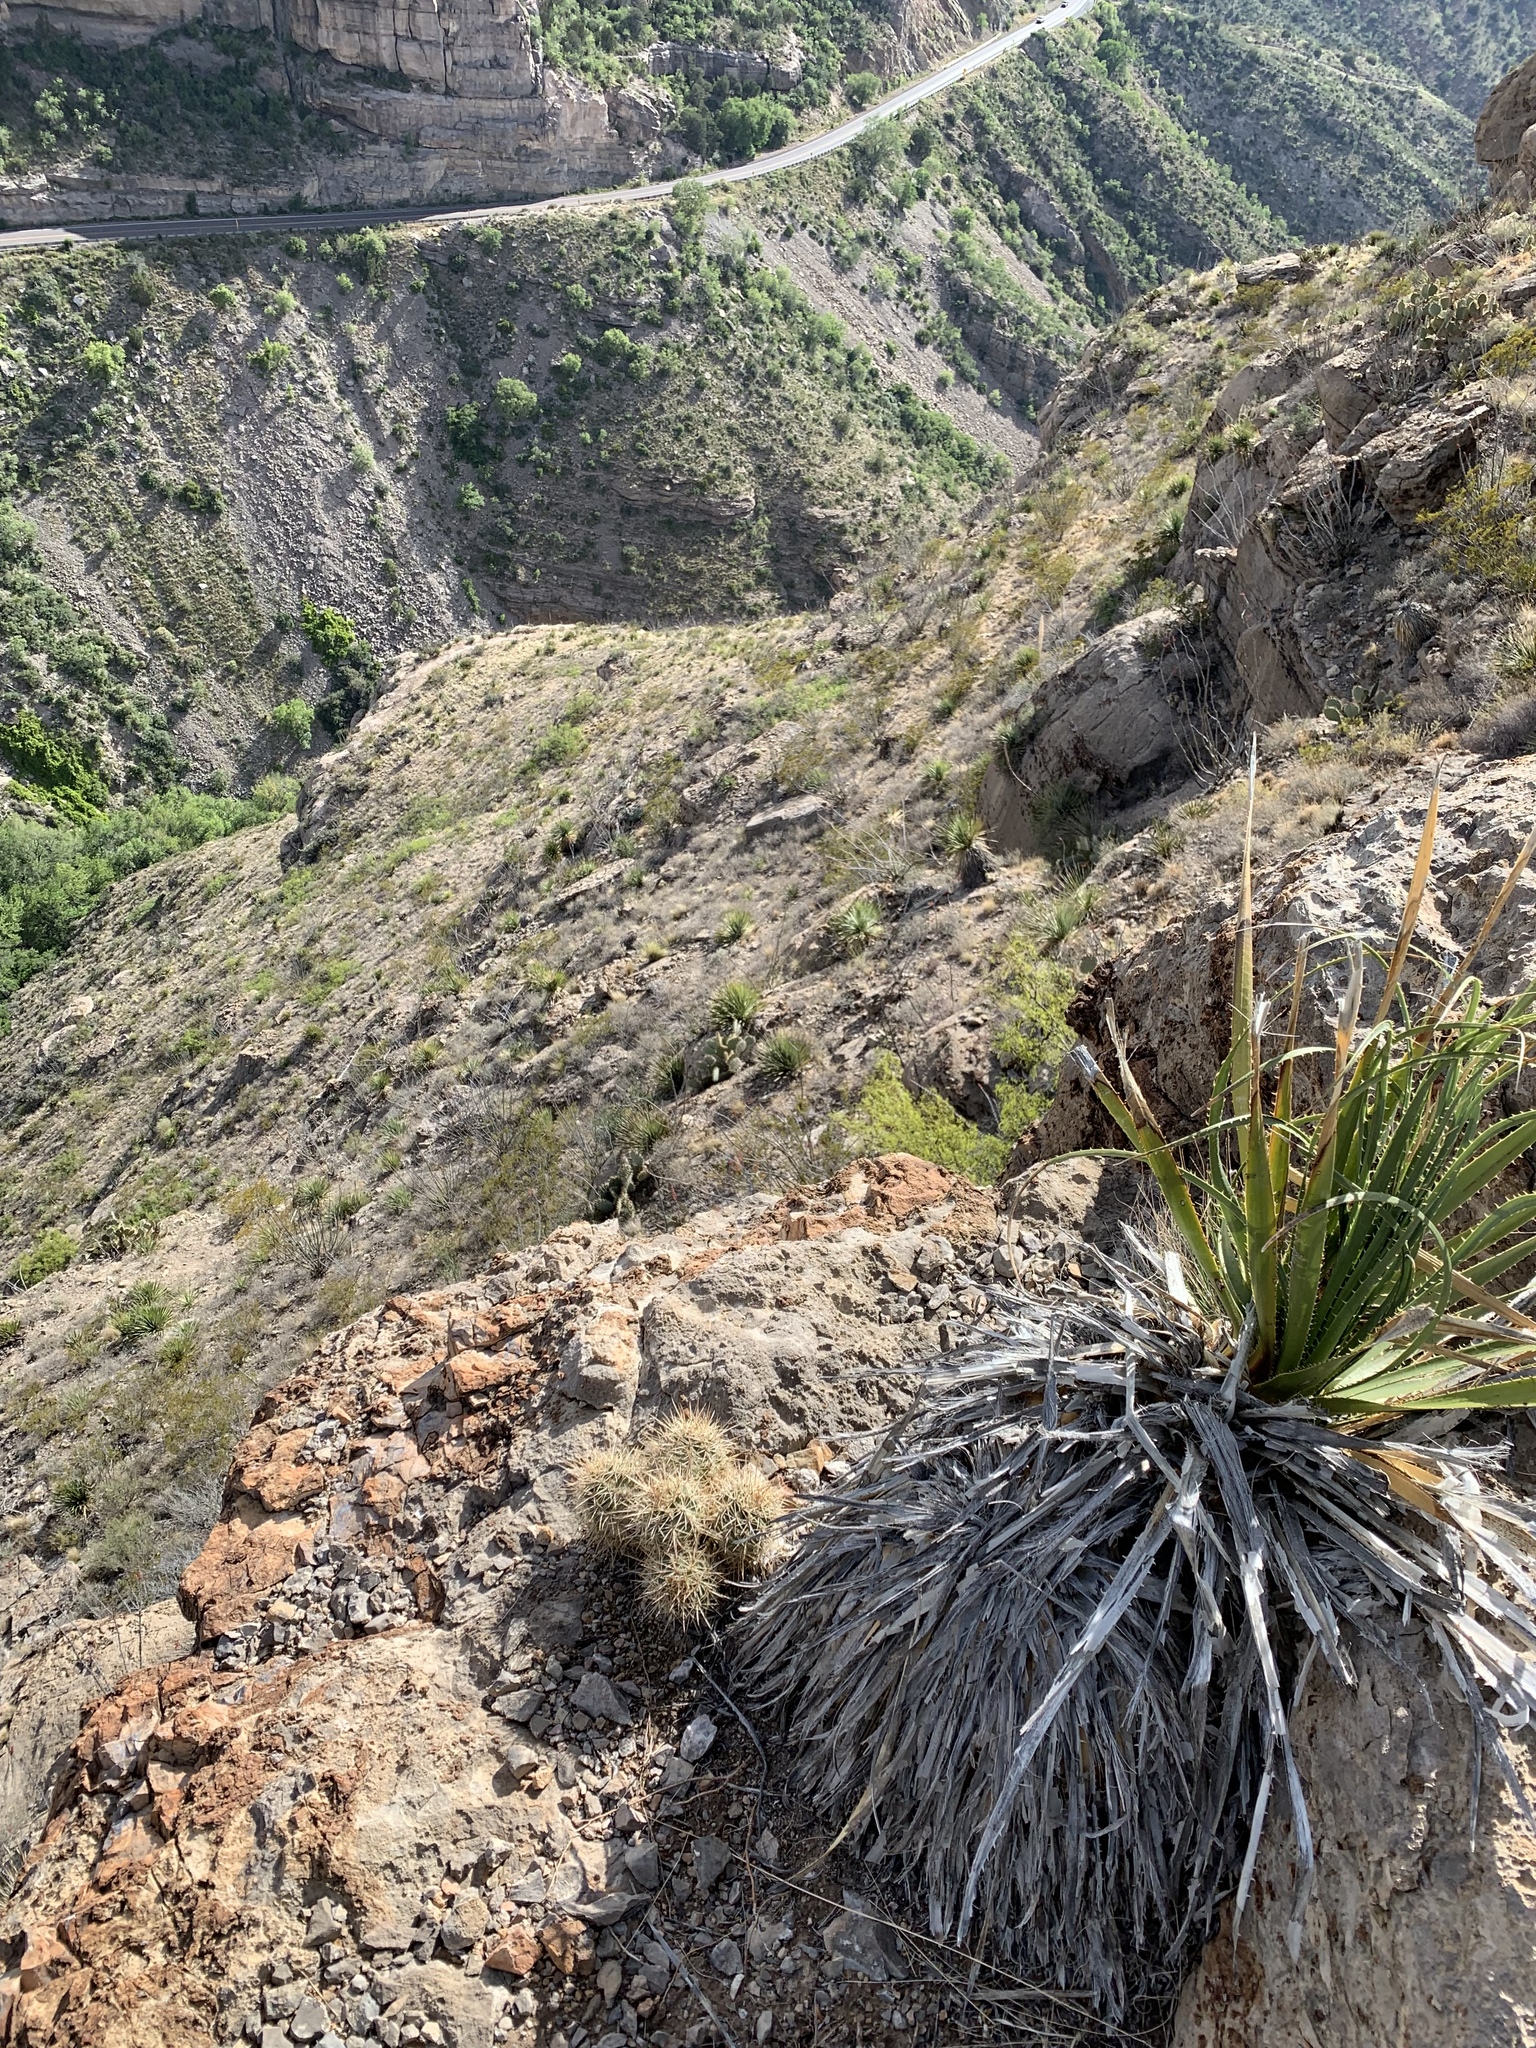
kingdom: Plantae
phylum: Tracheophyta
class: Magnoliopsida
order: Caryophyllales
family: Cactaceae
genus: Echinocereus
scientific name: Echinocereus coccineus
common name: Scarlet hedgehog cactus
